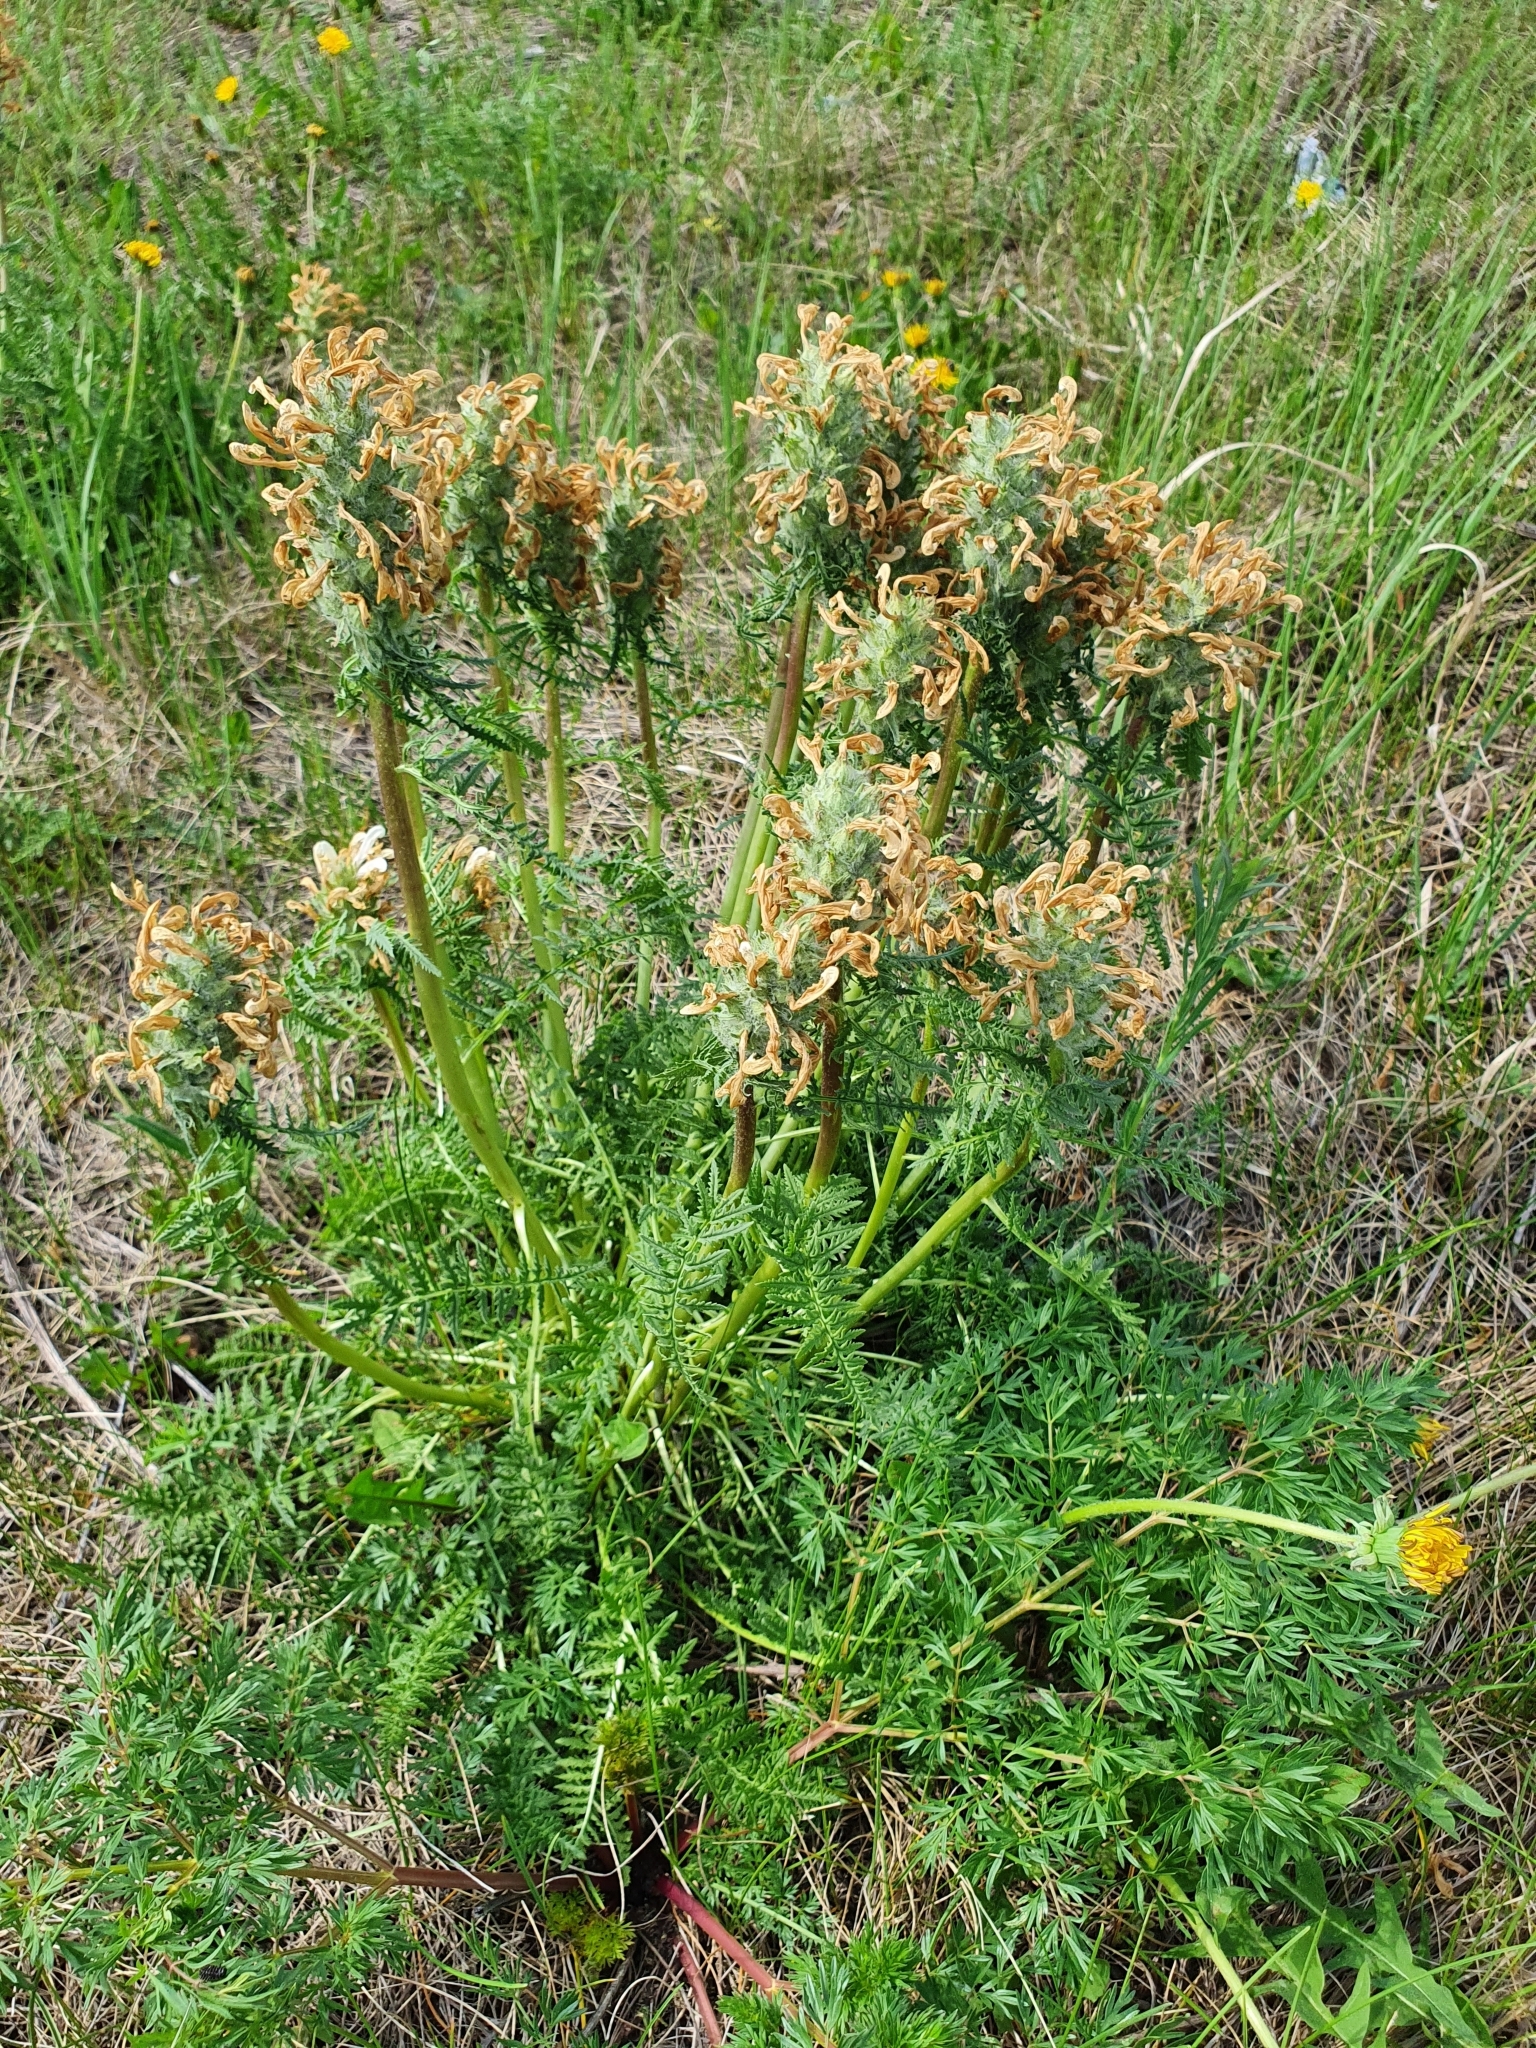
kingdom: Plantae
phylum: Tracheophyta
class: Magnoliopsida
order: Lamiales
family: Orobanchaceae
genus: Pedicularis
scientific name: Pedicularis dasystachys
